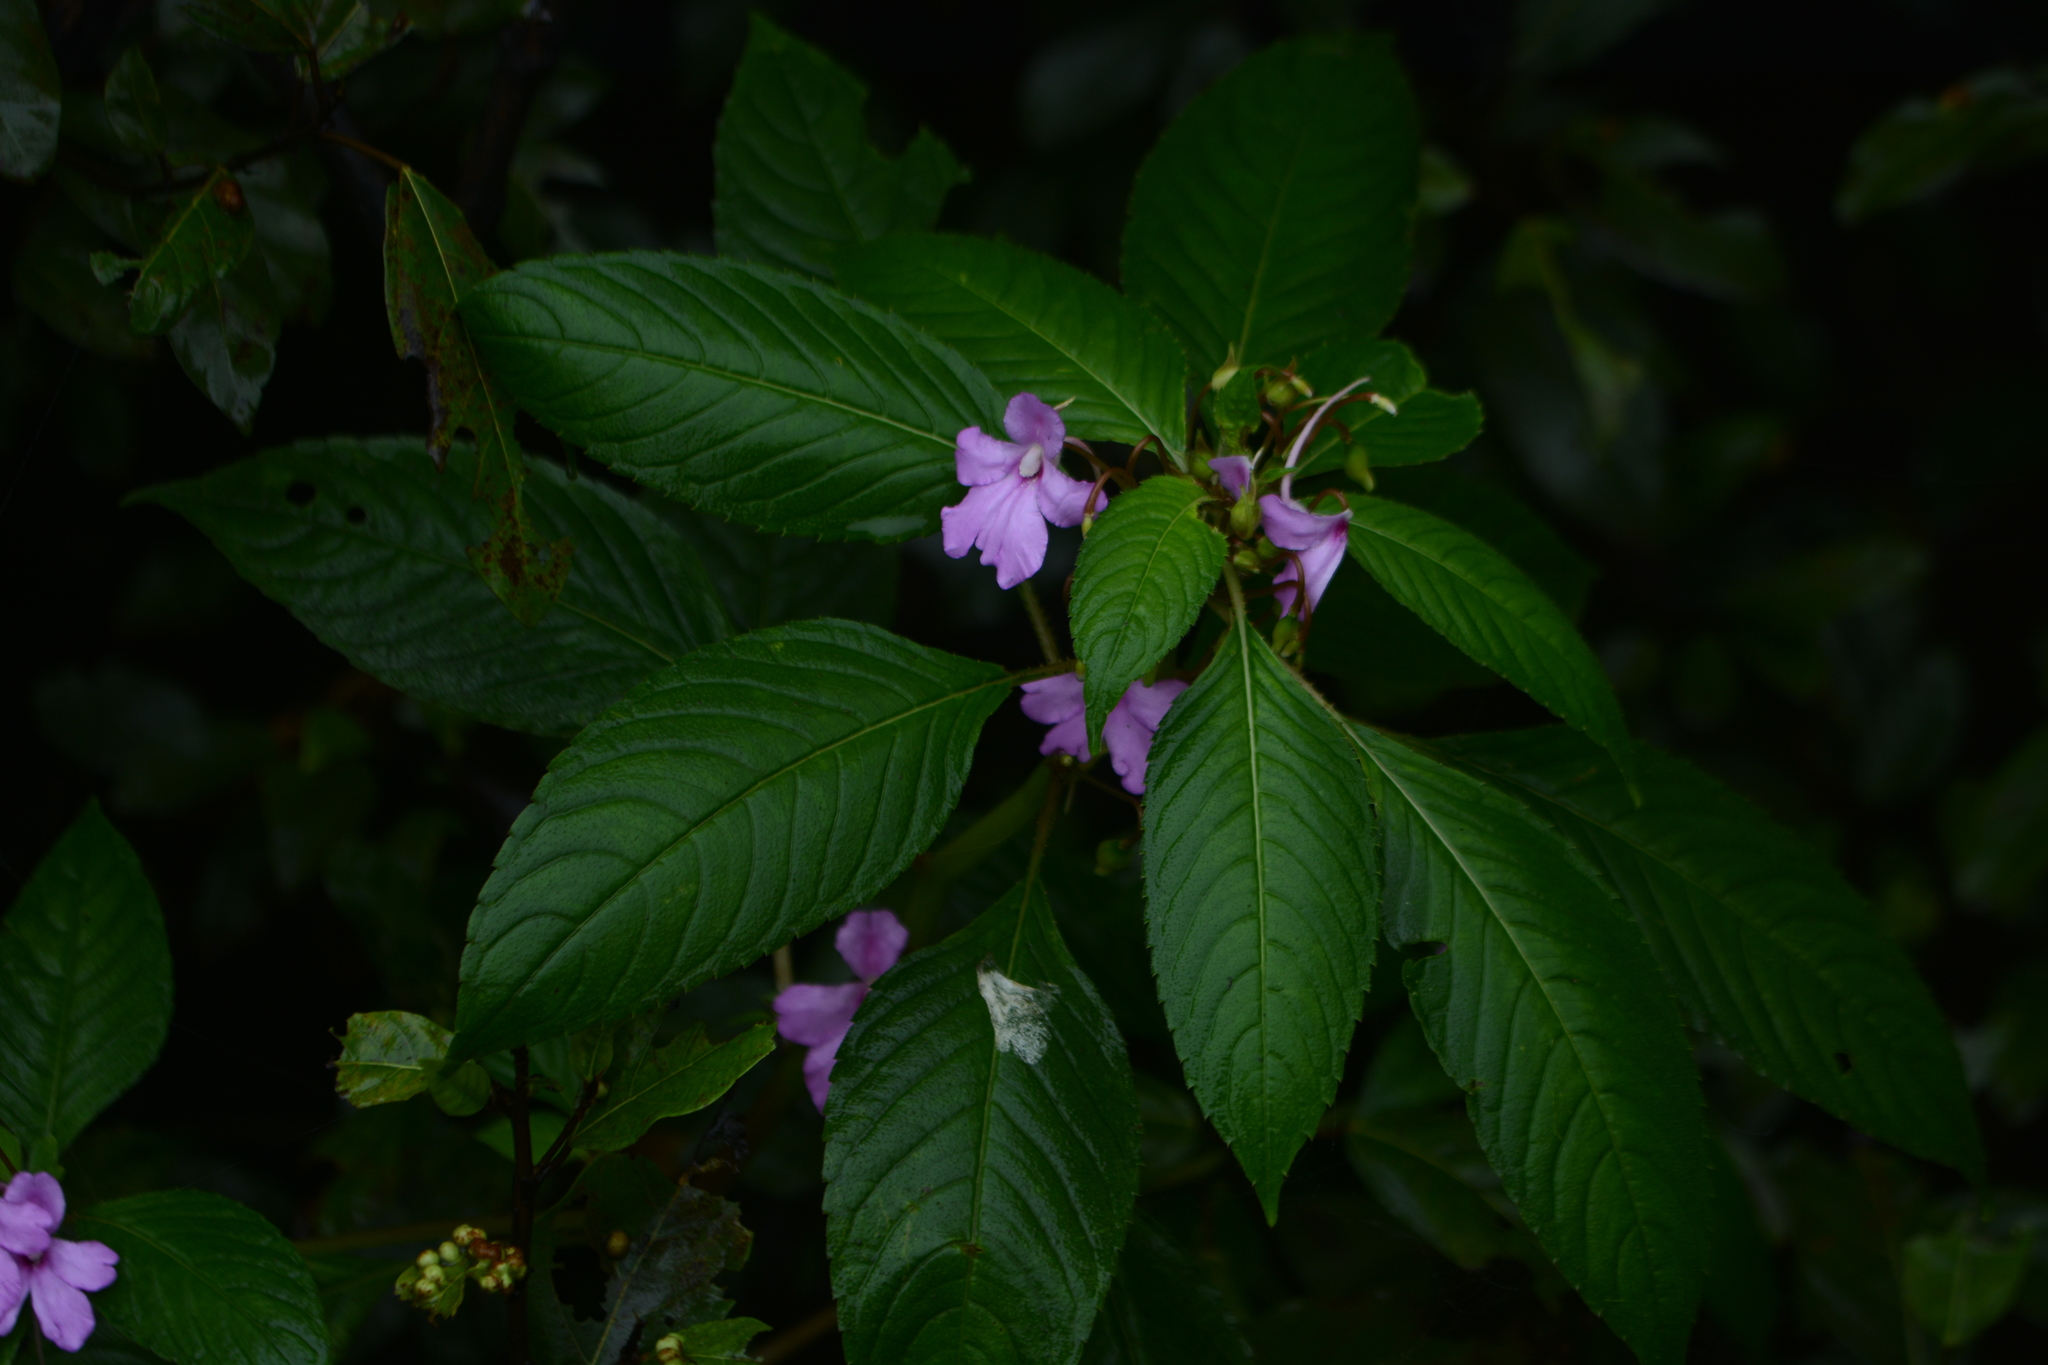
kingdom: Plantae
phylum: Tracheophyta
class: Magnoliopsida
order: Ericales
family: Balsaminaceae
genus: Impatiens
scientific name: Impatiens pulcherrima
